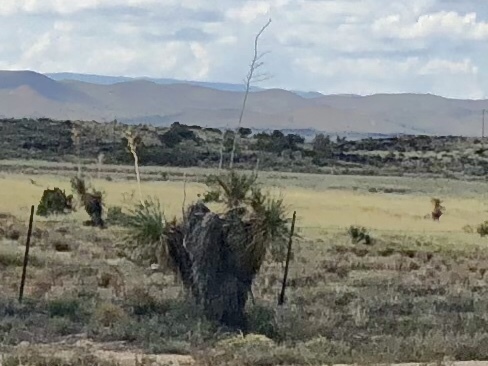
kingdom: Plantae
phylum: Tracheophyta
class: Liliopsida
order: Asparagales
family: Asparagaceae
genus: Yucca
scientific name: Yucca elata
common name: Palmella
